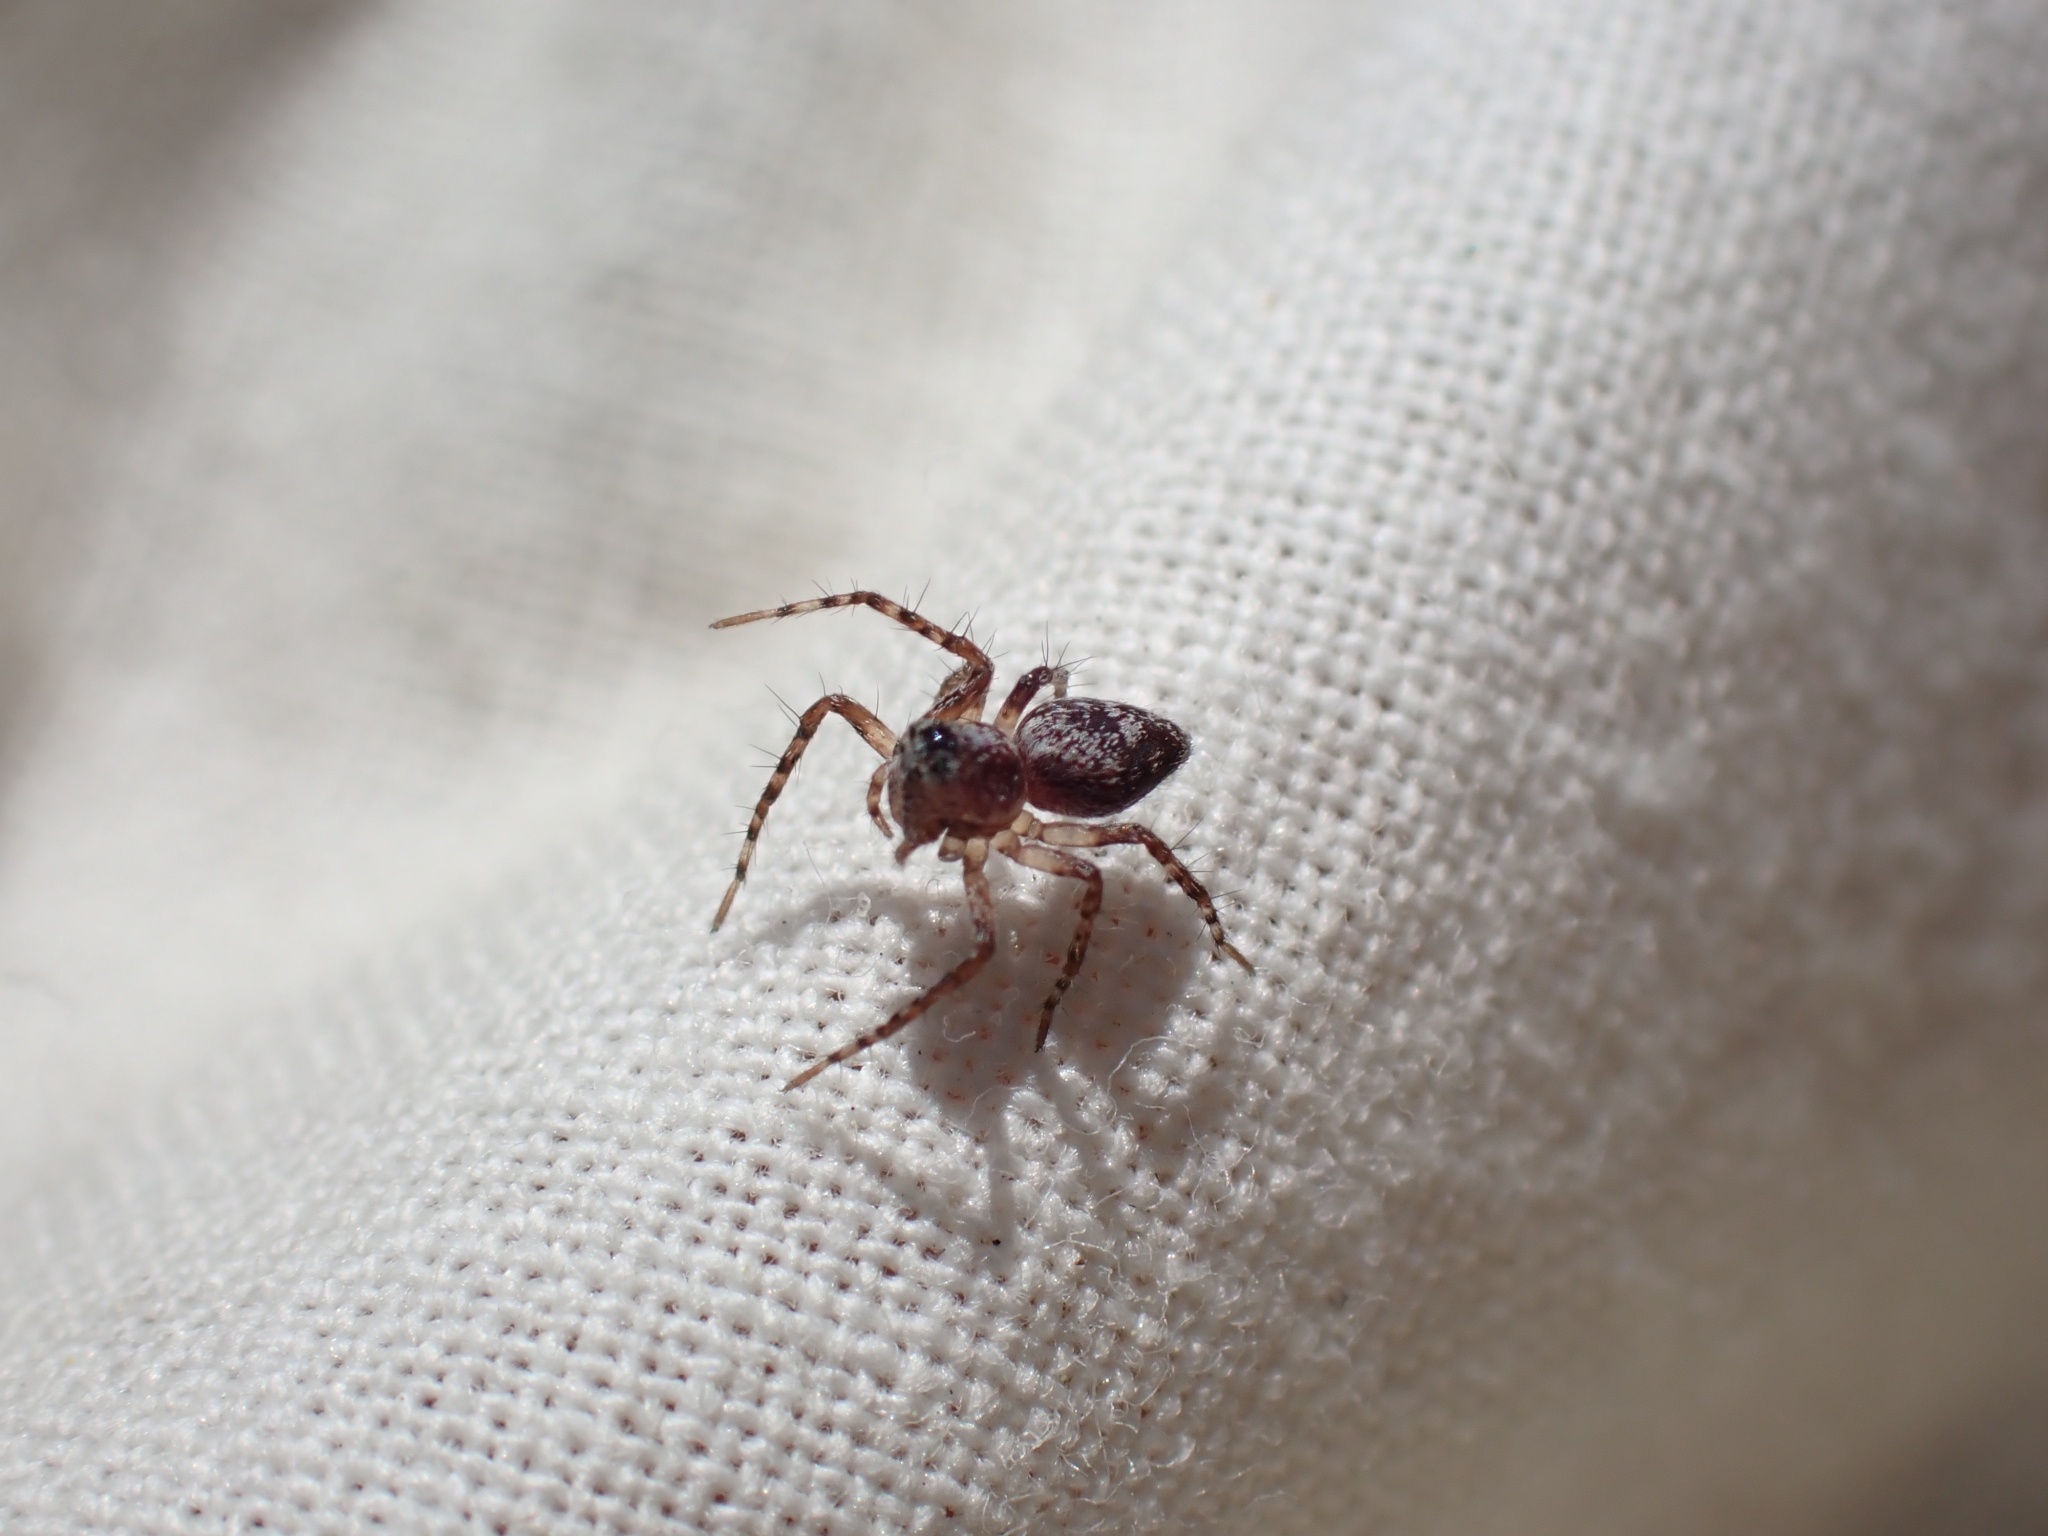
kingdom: Animalia
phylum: Arthropoda
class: Arachnida
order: Araneae
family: Oxyopidae
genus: Oxyopes
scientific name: Oxyopes scalaris
